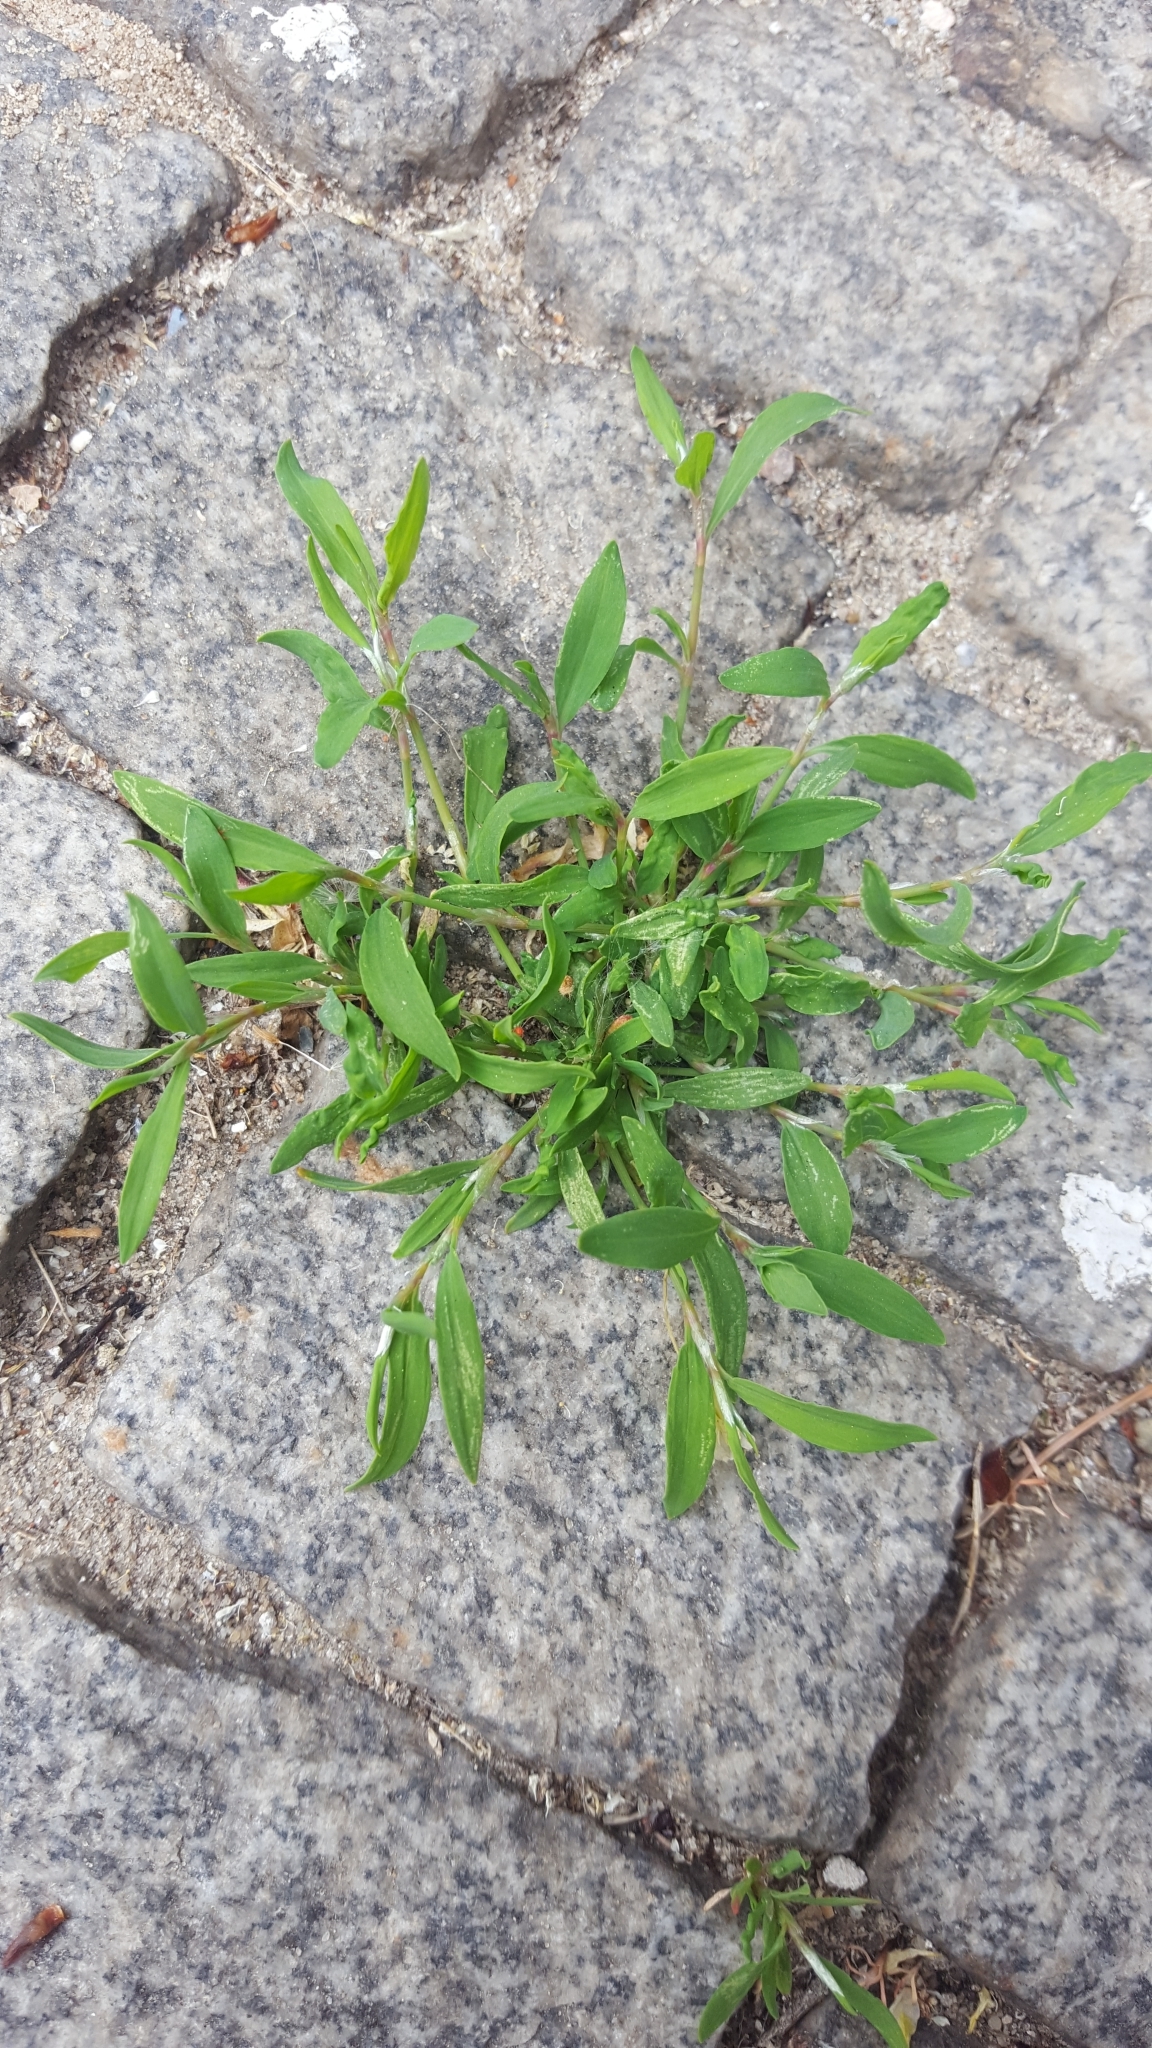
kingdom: Plantae
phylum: Tracheophyta
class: Magnoliopsida
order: Caryophyllales
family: Polygonaceae
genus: Polygonum
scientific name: Polygonum aviculare
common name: Prostrate knotweed
